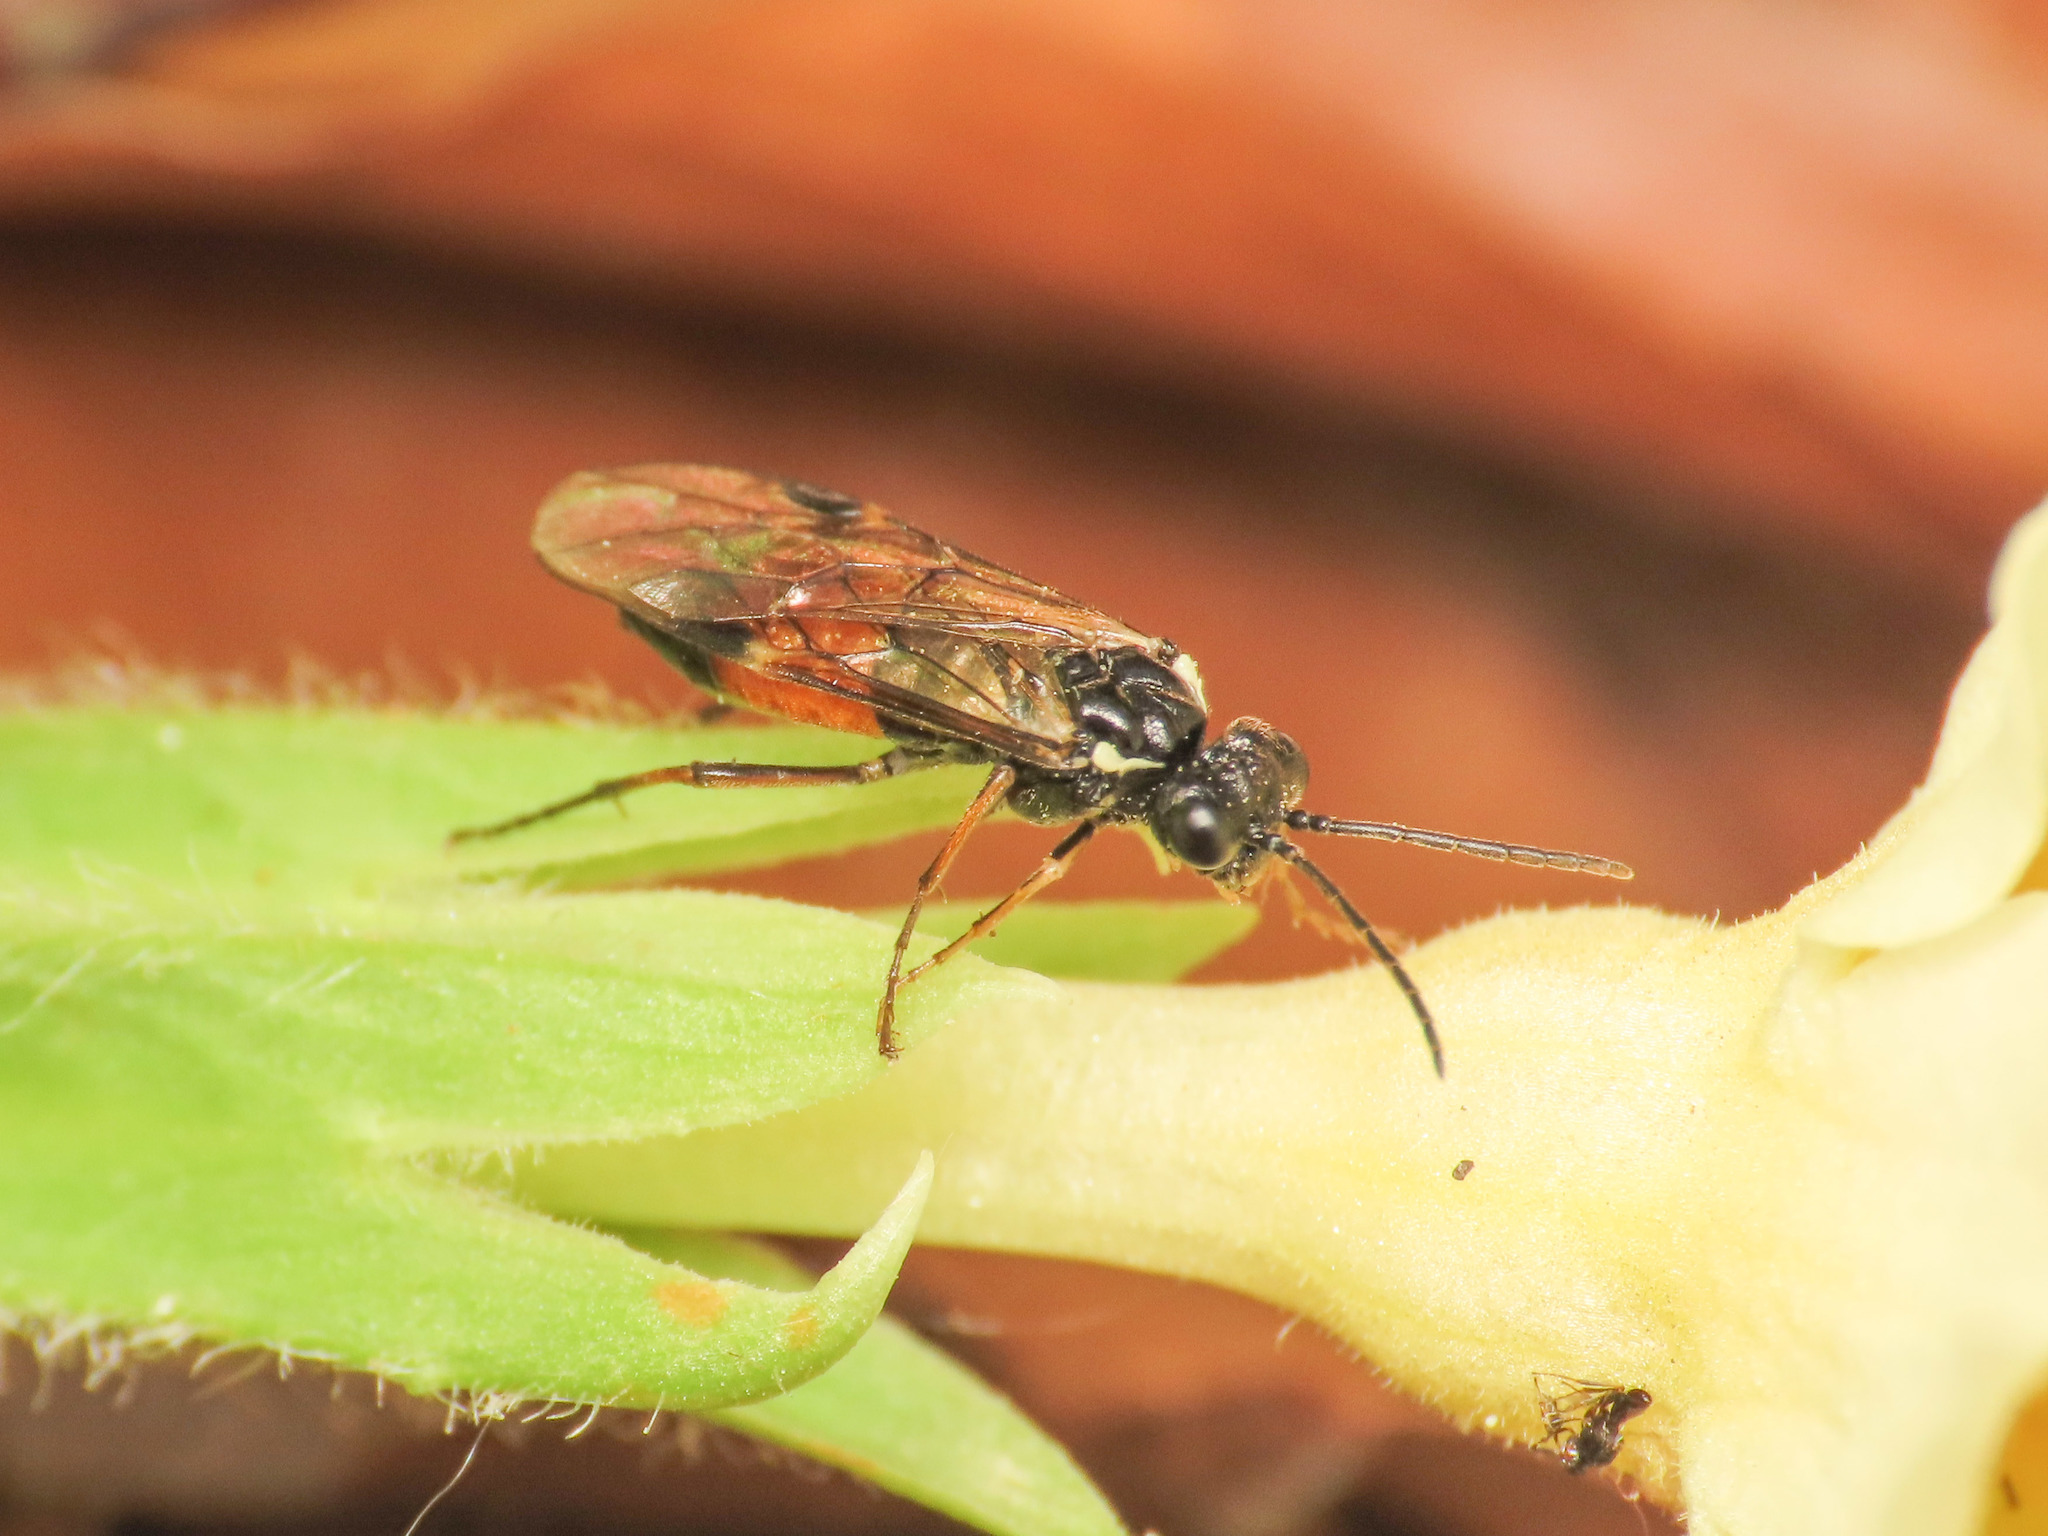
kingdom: Animalia
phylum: Arthropoda
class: Insecta
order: Hymenoptera
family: Tenthredinidae
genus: Aglaostigma
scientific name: Aglaostigma aucupariae
